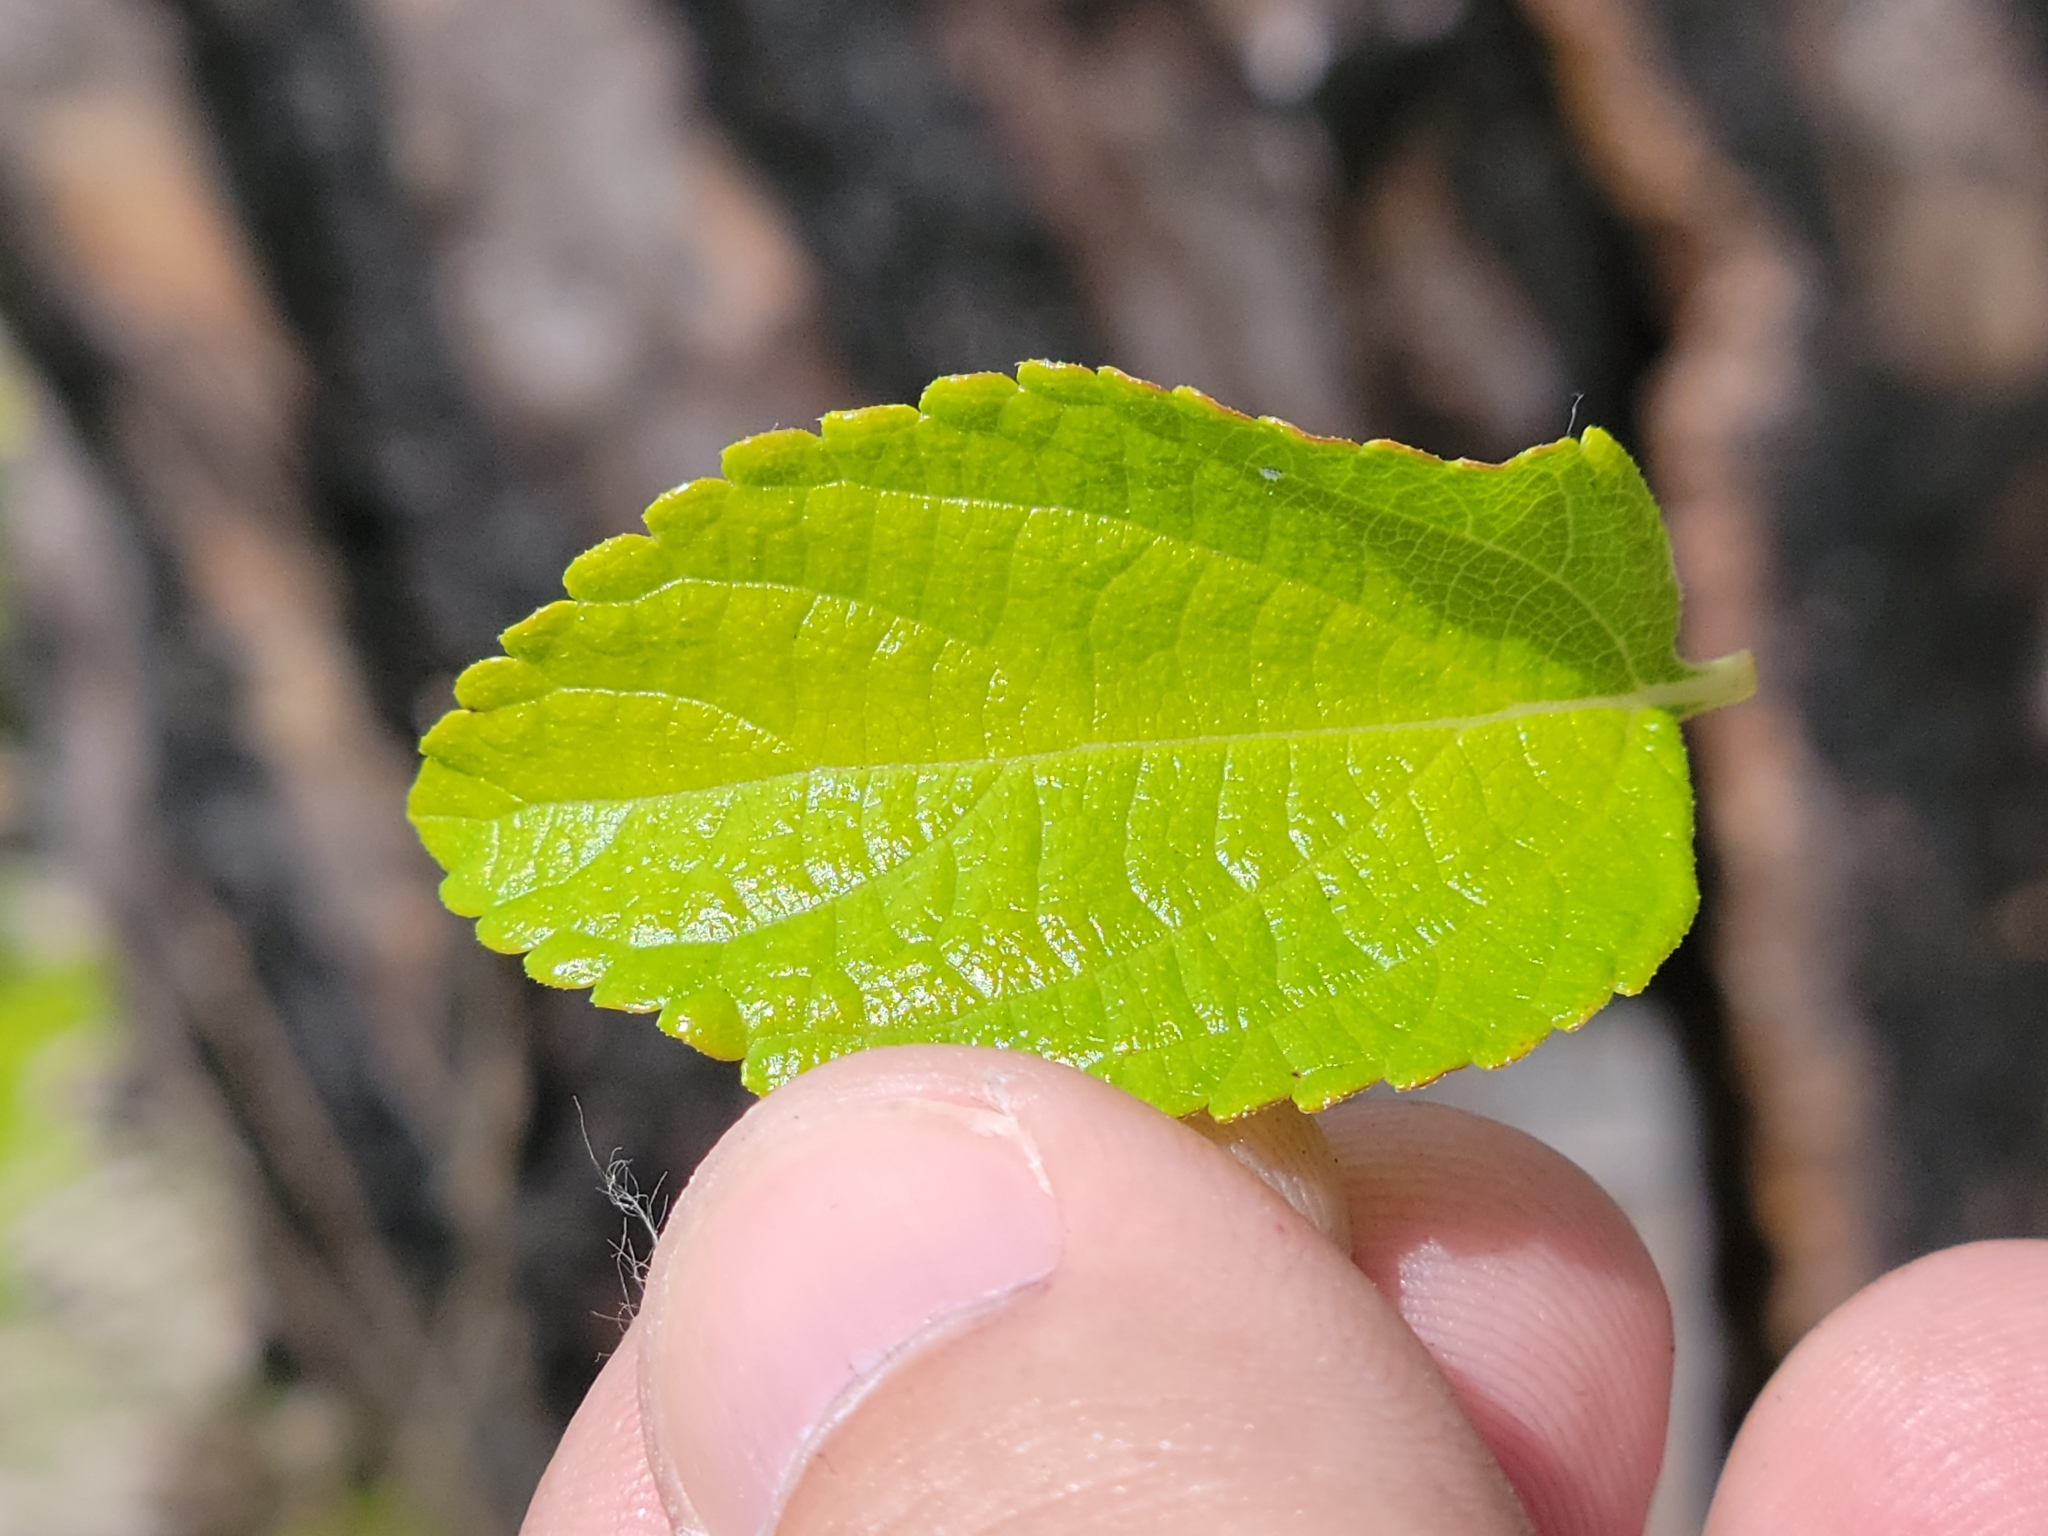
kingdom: Plantae
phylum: Tracheophyta
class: Magnoliopsida
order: Lamiales
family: Verbenaceae
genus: Lantana
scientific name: Lantana sandersii
